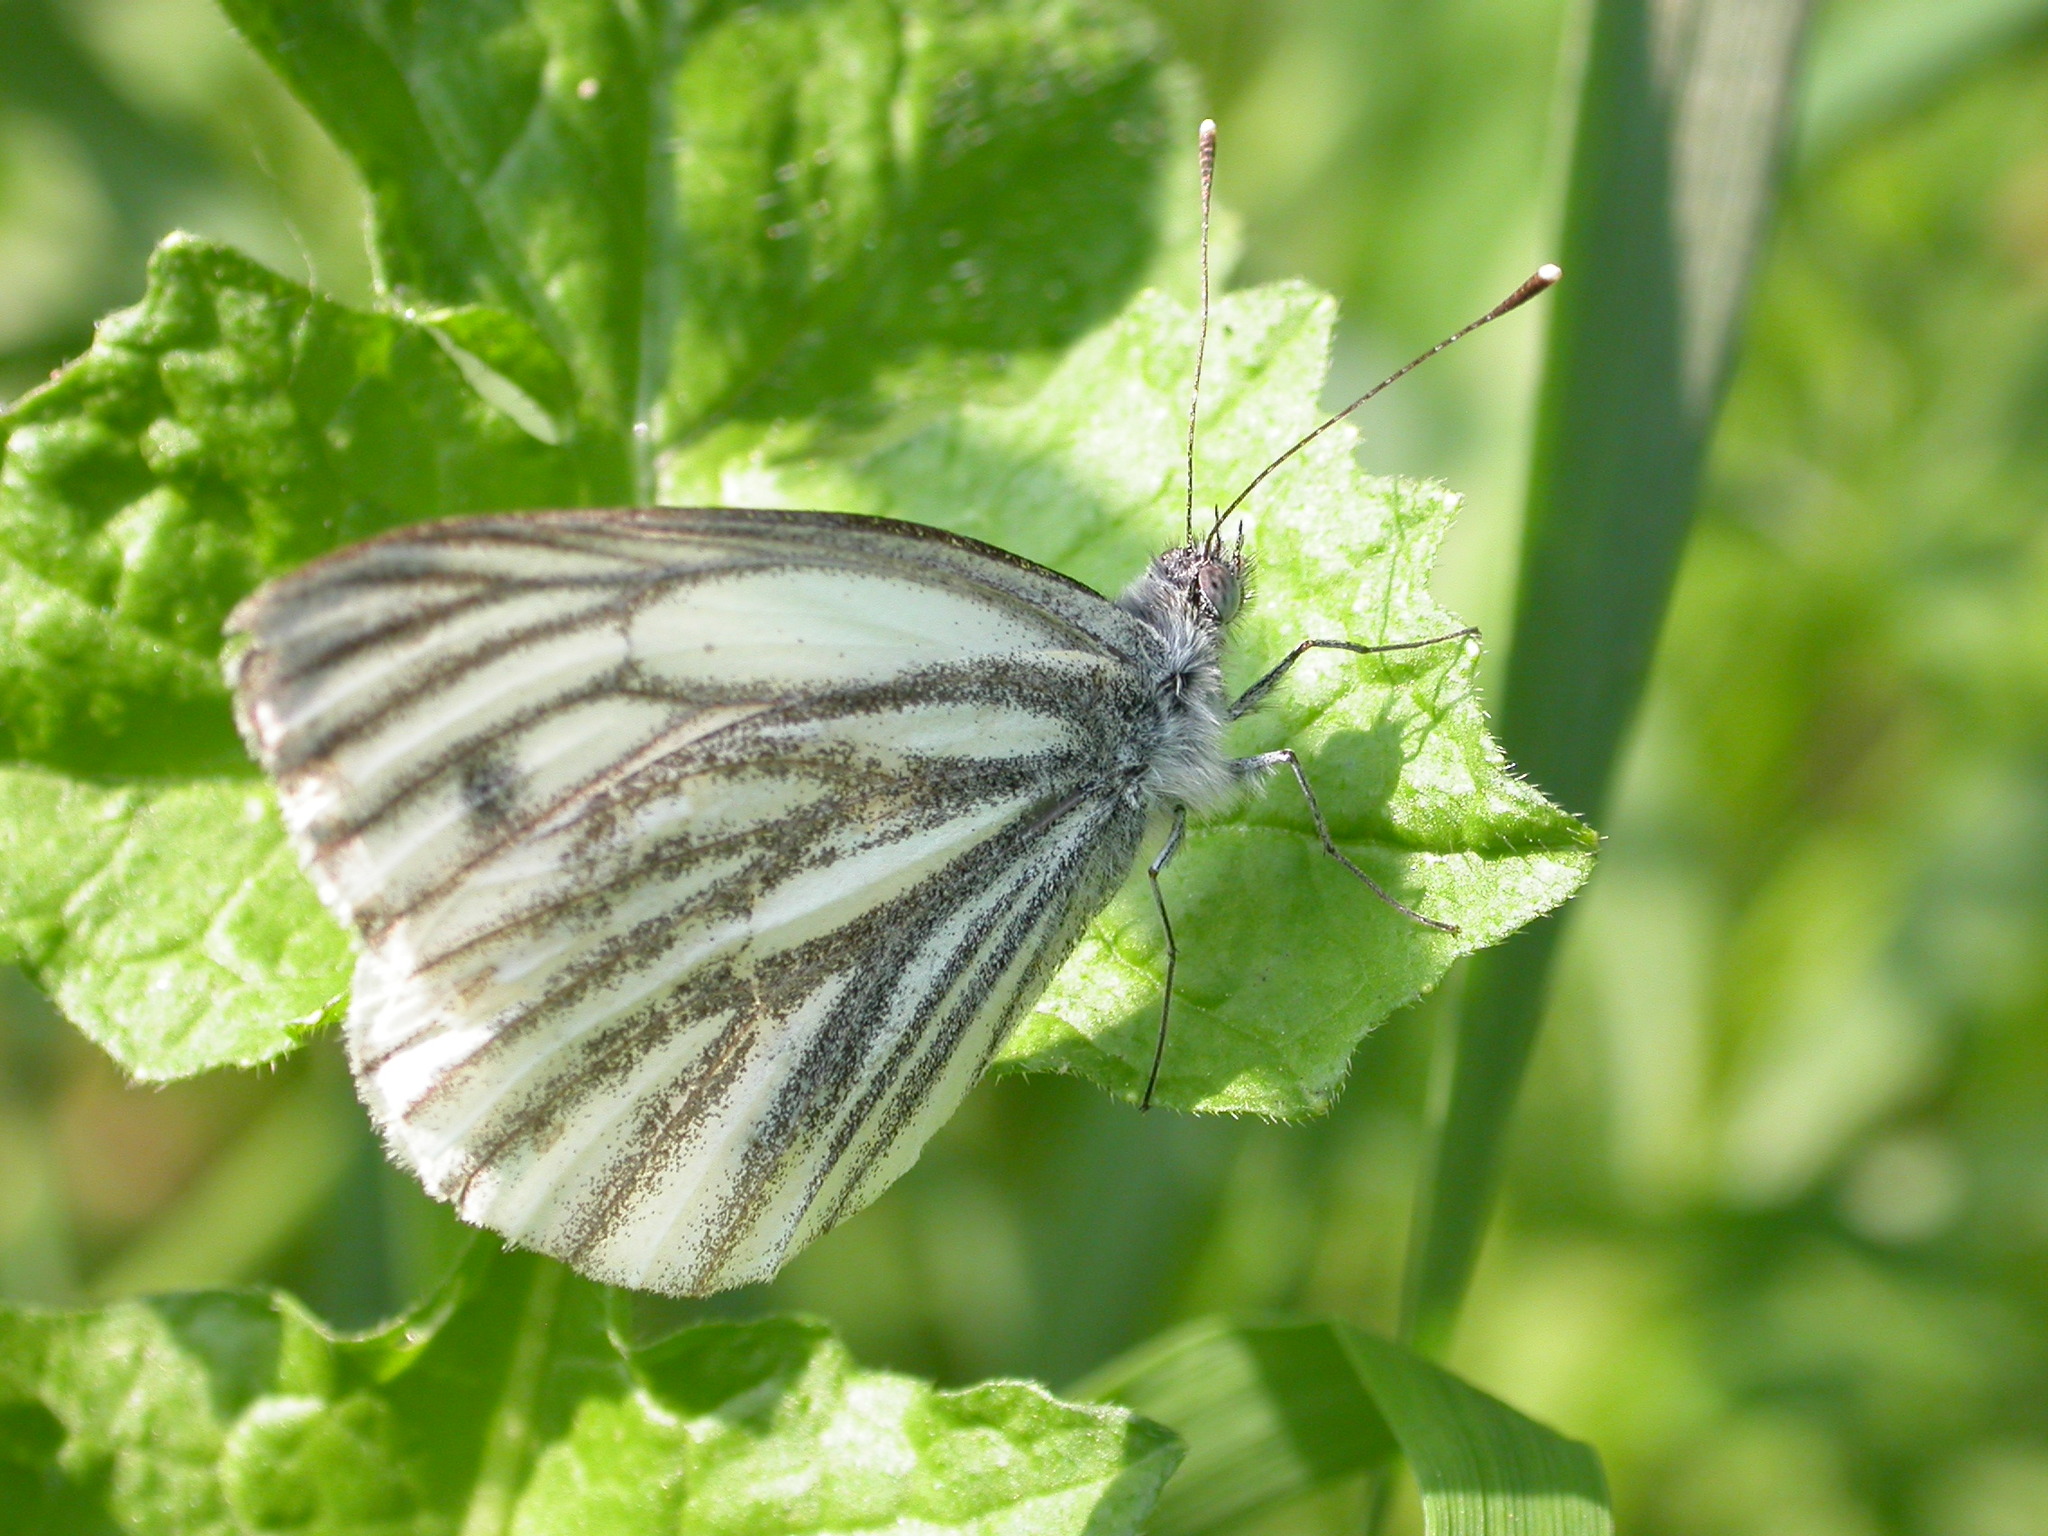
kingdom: Animalia
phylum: Arthropoda
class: Insecta
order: Lepidoptera
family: Pieridae
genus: Pieris
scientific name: Pieris napi
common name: Green-veined white
